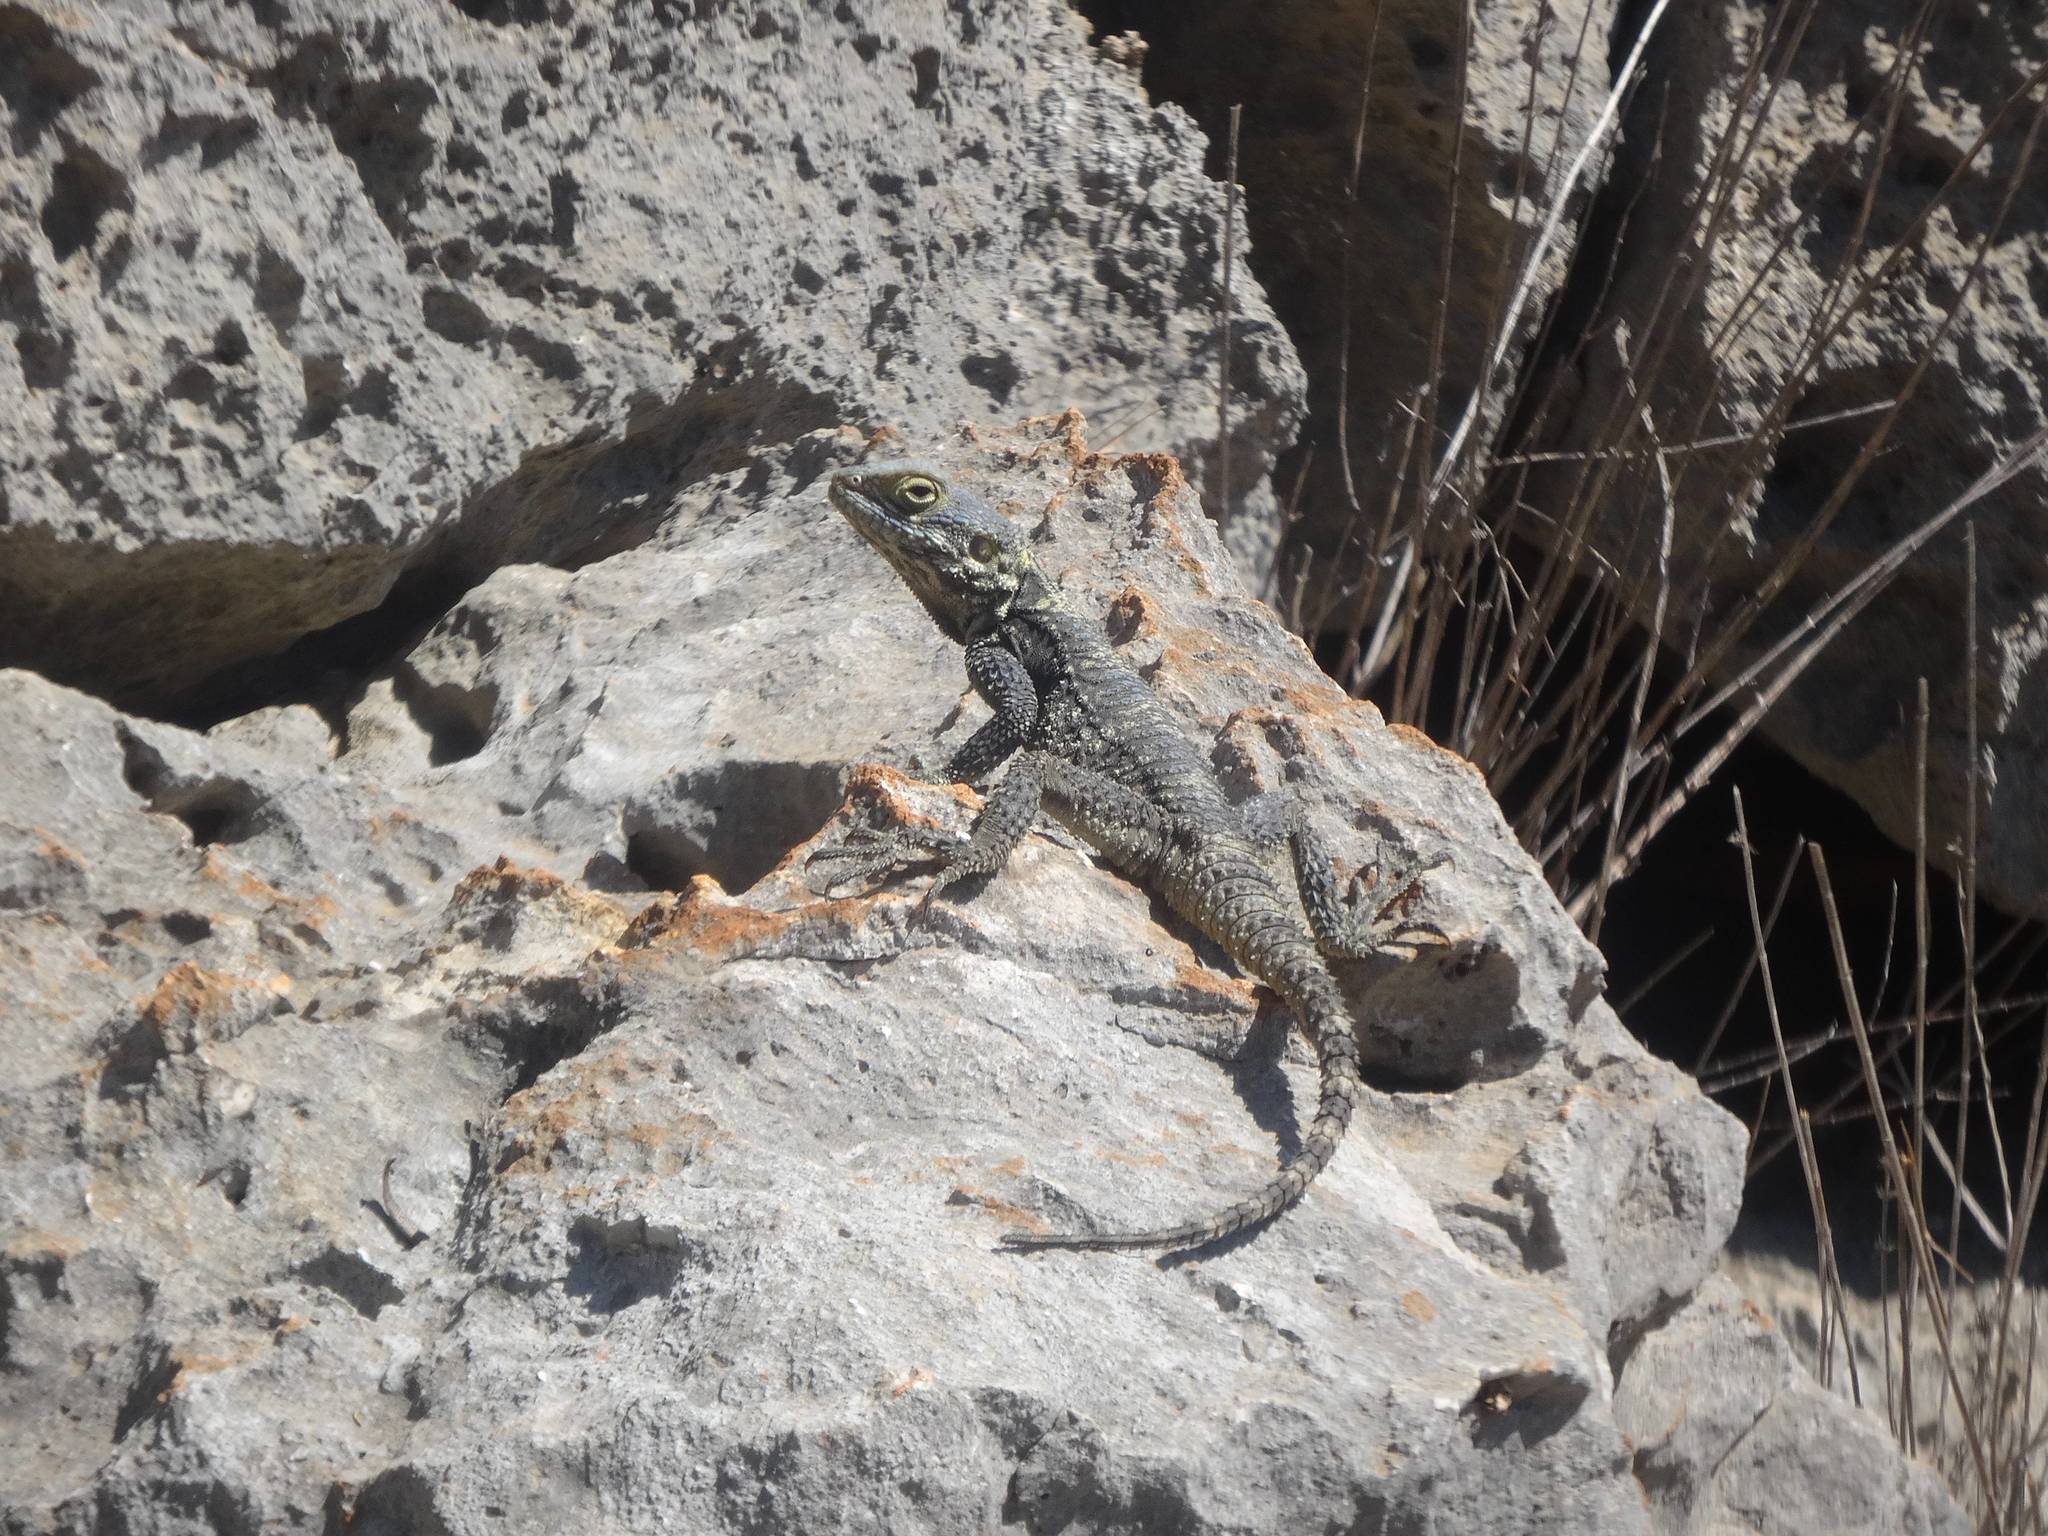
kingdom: Animalia
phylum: Chordata
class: Squamata
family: Agamidae
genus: Stellagama
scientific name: Stellagama stellio
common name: Starred agama
